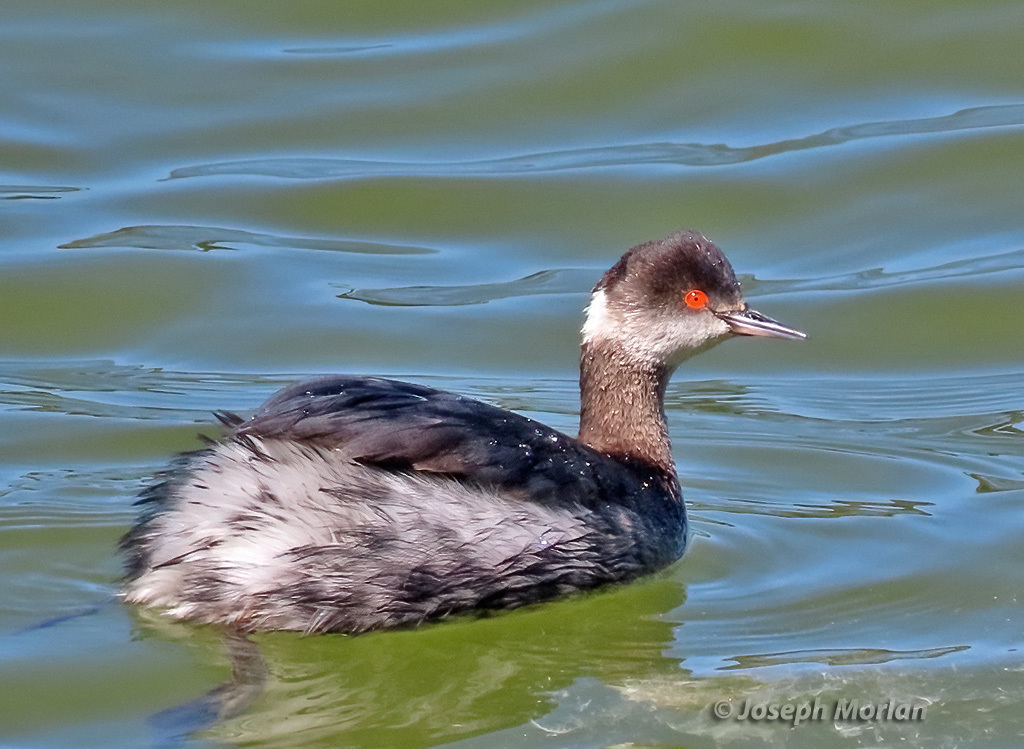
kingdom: Animalia
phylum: Chordata
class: Aves
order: Podicipediformes
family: Podicipedidae
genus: Podiceps
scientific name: Podiceps nigricollis
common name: Black-necked grebe
